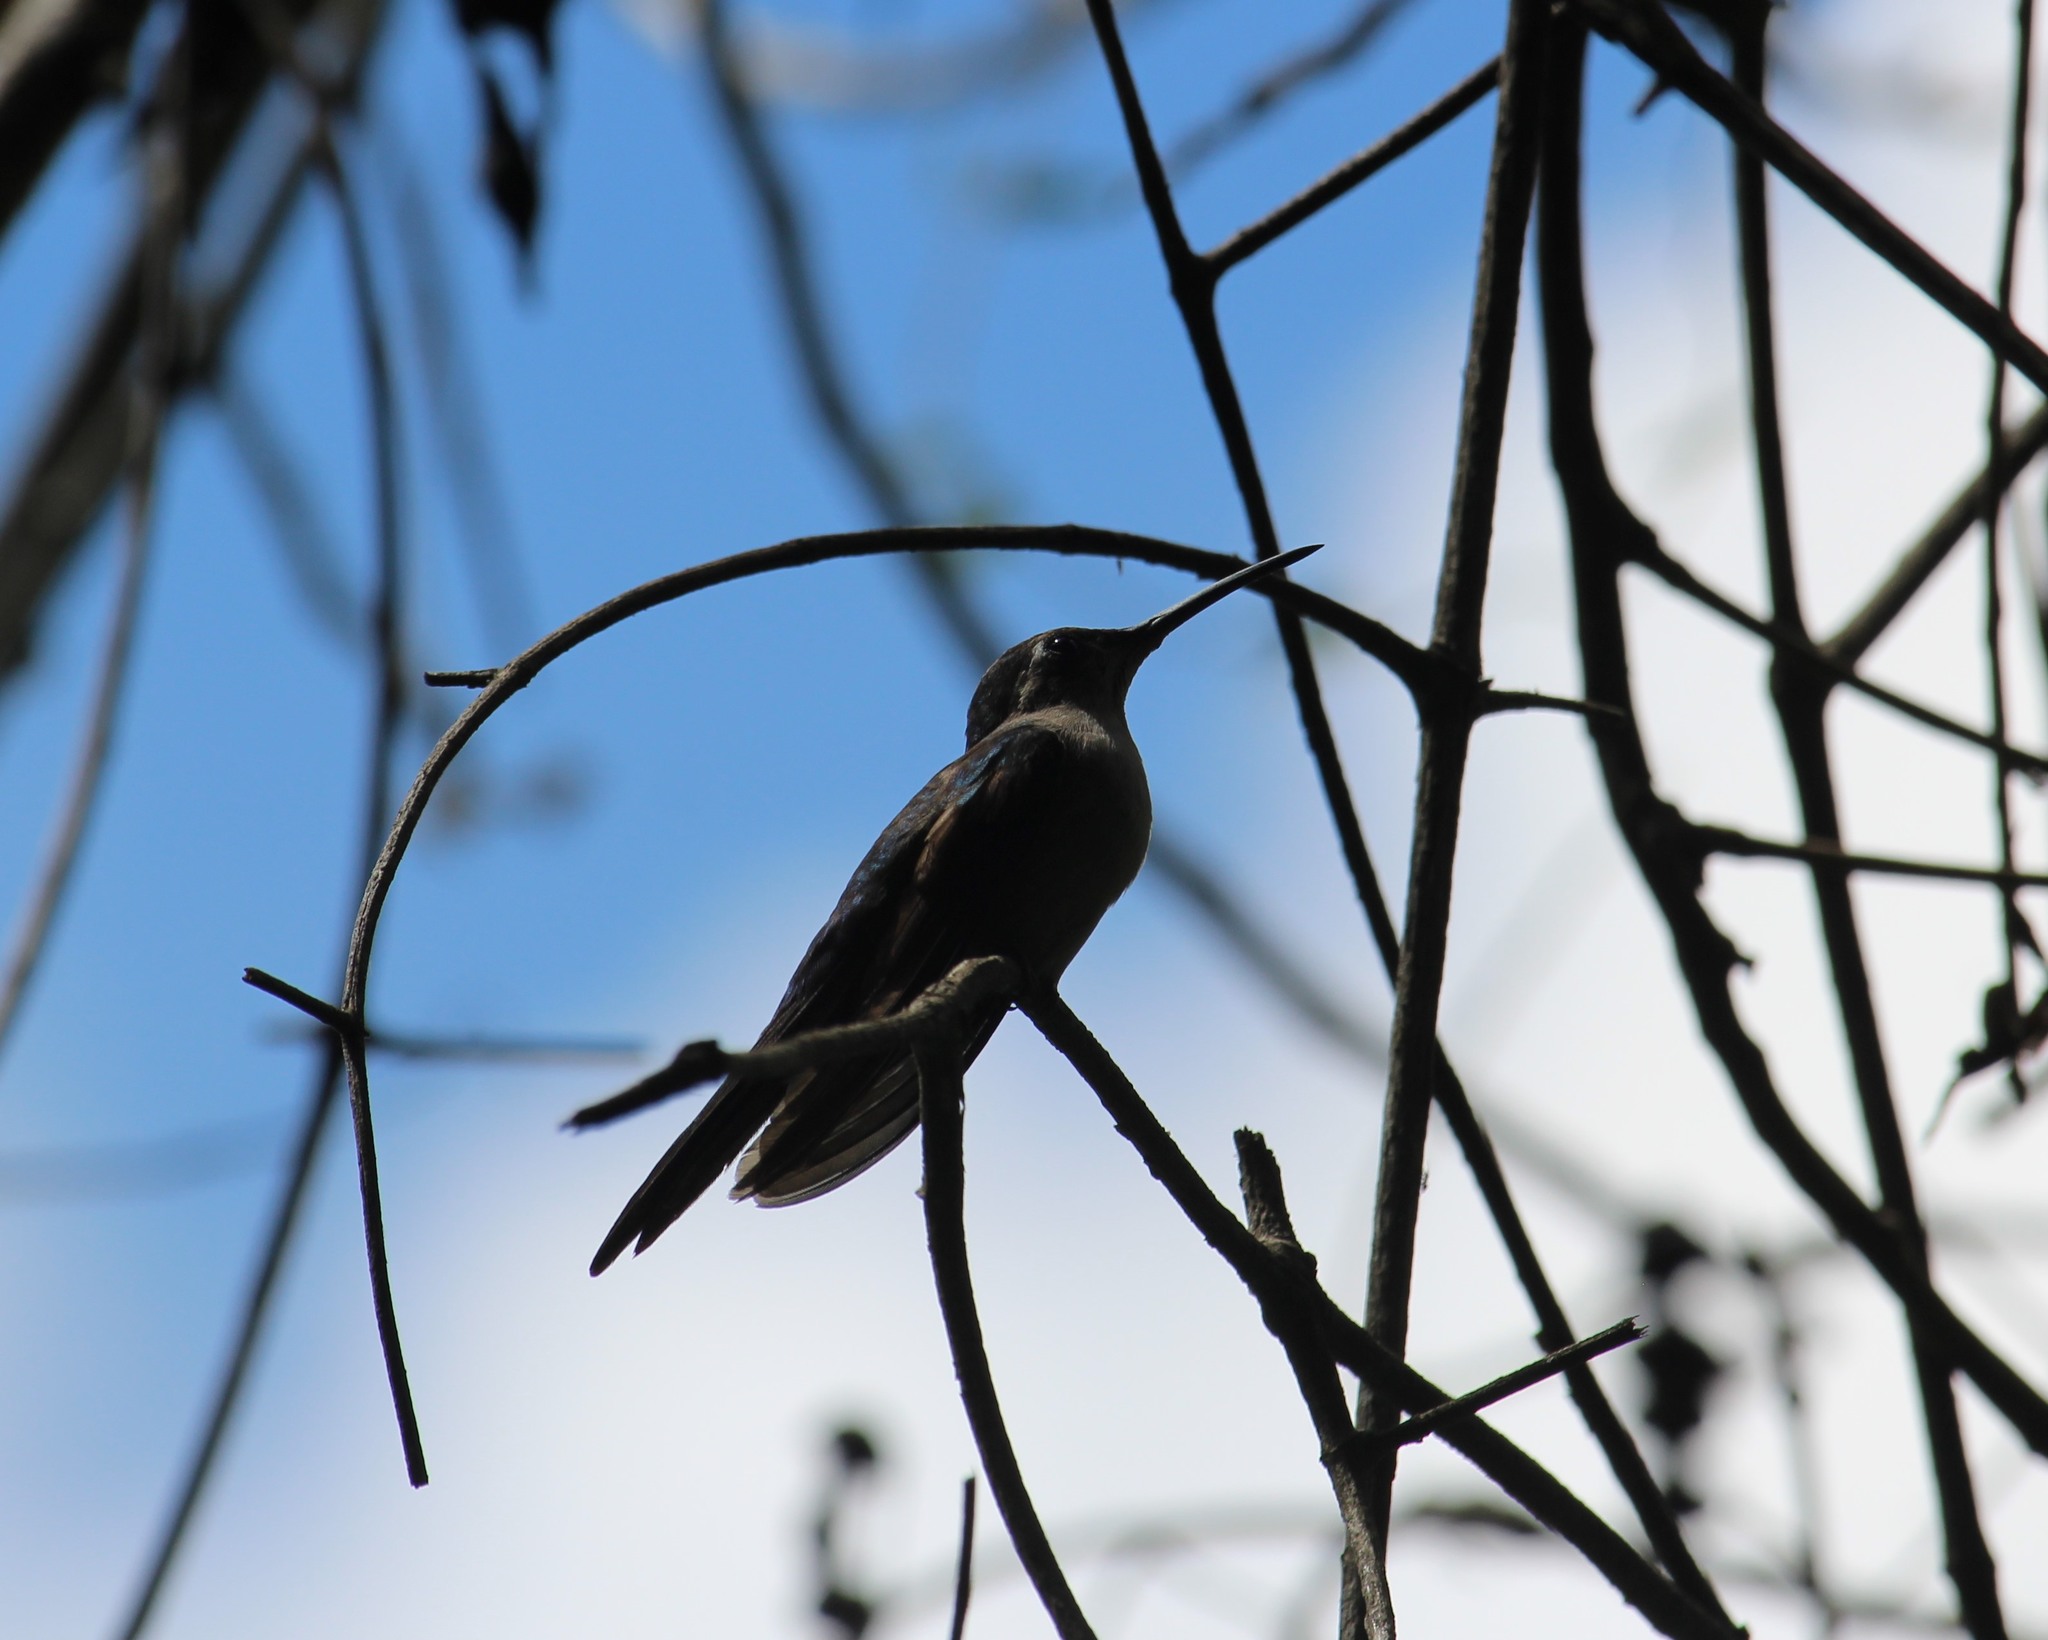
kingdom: Animalia
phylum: Chordata
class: Aves
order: Apodiformes
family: Trochilidae
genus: Pampa
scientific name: Pampa curvipennis
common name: Curve-winged sabrewing
